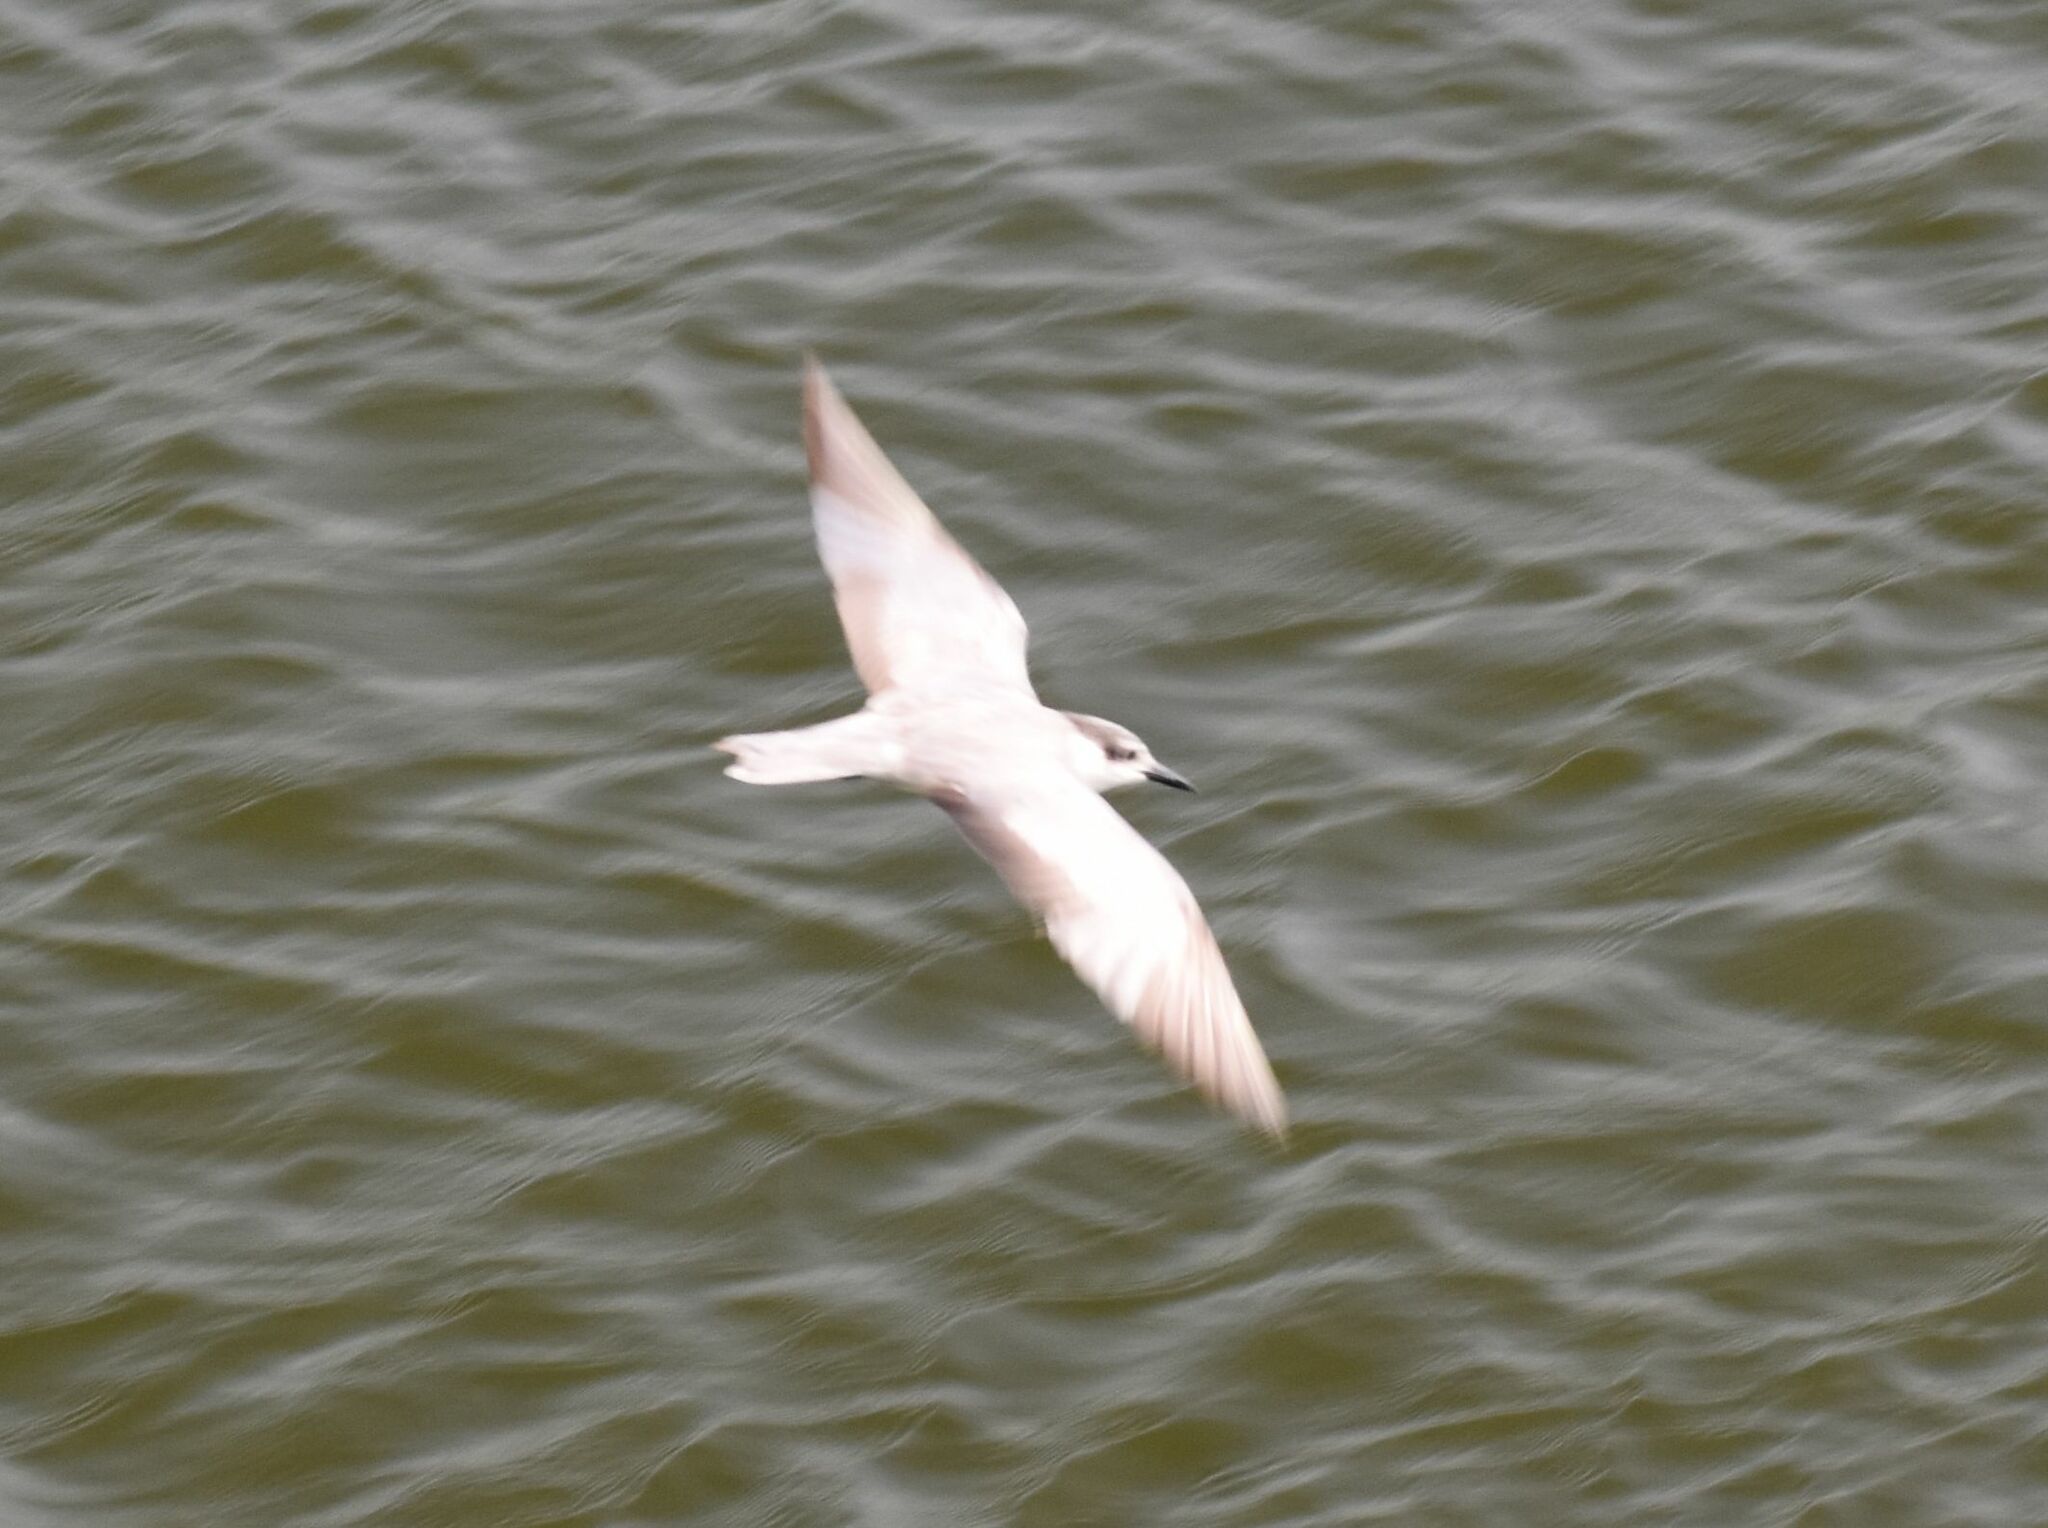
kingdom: Animalia
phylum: Chordata
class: Aves
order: Charadriiformes
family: Laridae
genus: Chlidonias
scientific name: Chlidonias hybrida
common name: Whiskered tern
